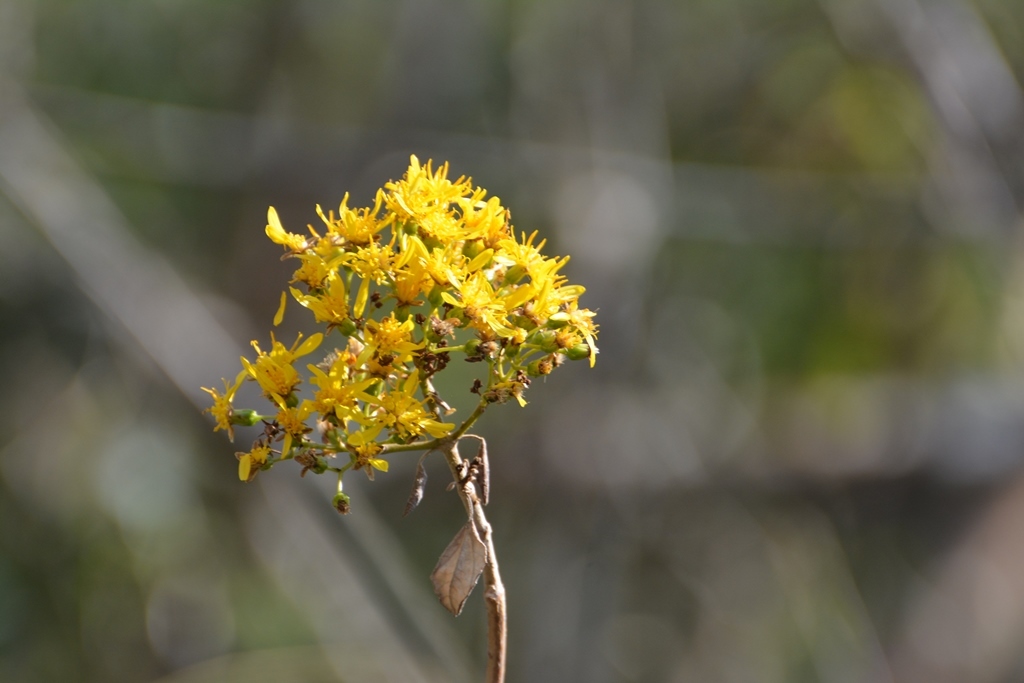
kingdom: Plantae
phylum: Tracheophyta
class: Magnoliopsida
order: Asterales
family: Asteraceae
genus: Sinclairia
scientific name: Sinclairia discolor
